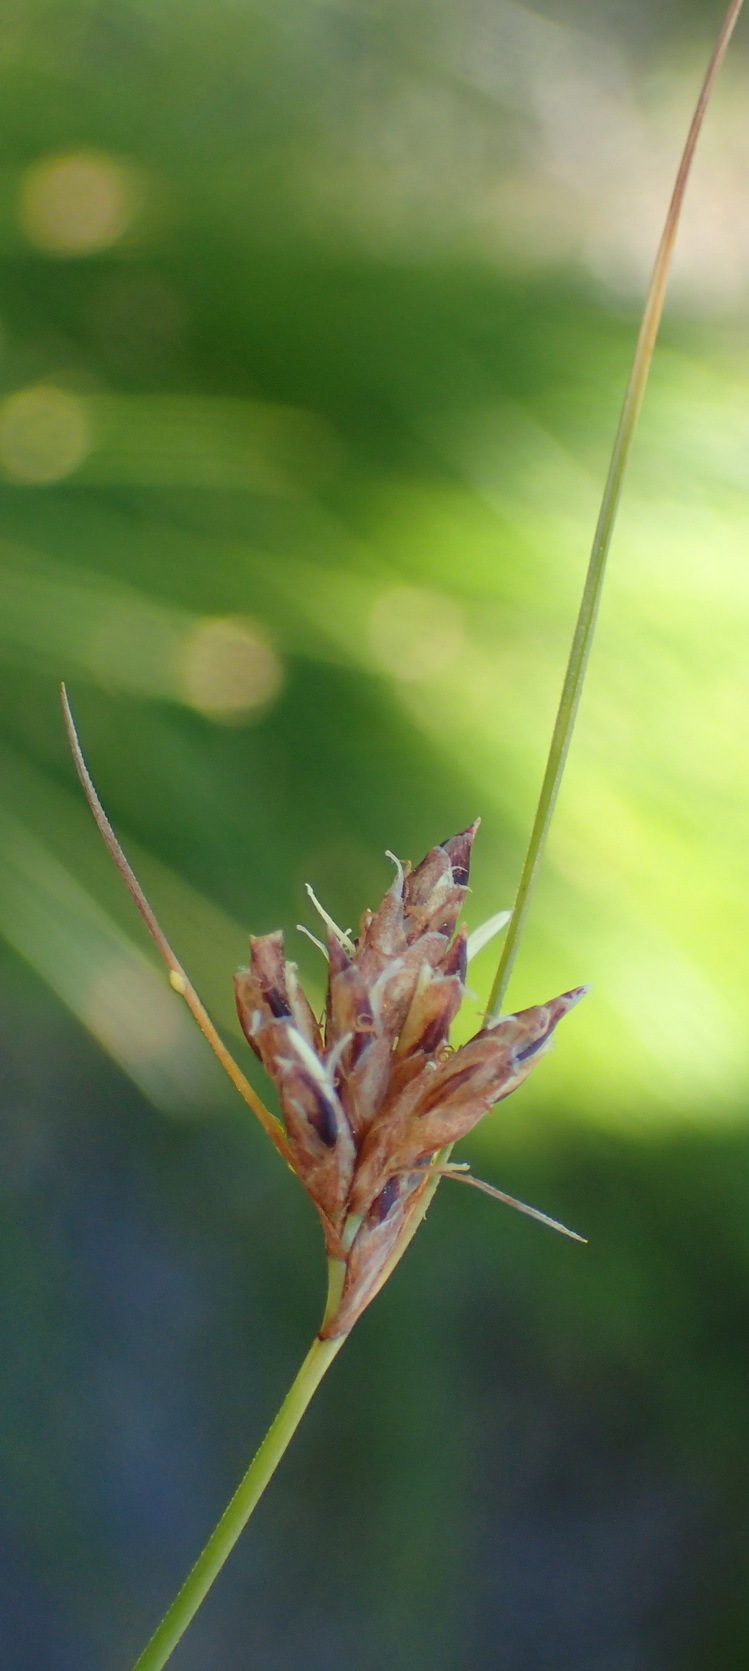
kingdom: Plantae
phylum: Tracheophyta
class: Liliopsida
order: Poales
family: Cyperaceae
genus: Ficinia
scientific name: Ficinia fascicularis
